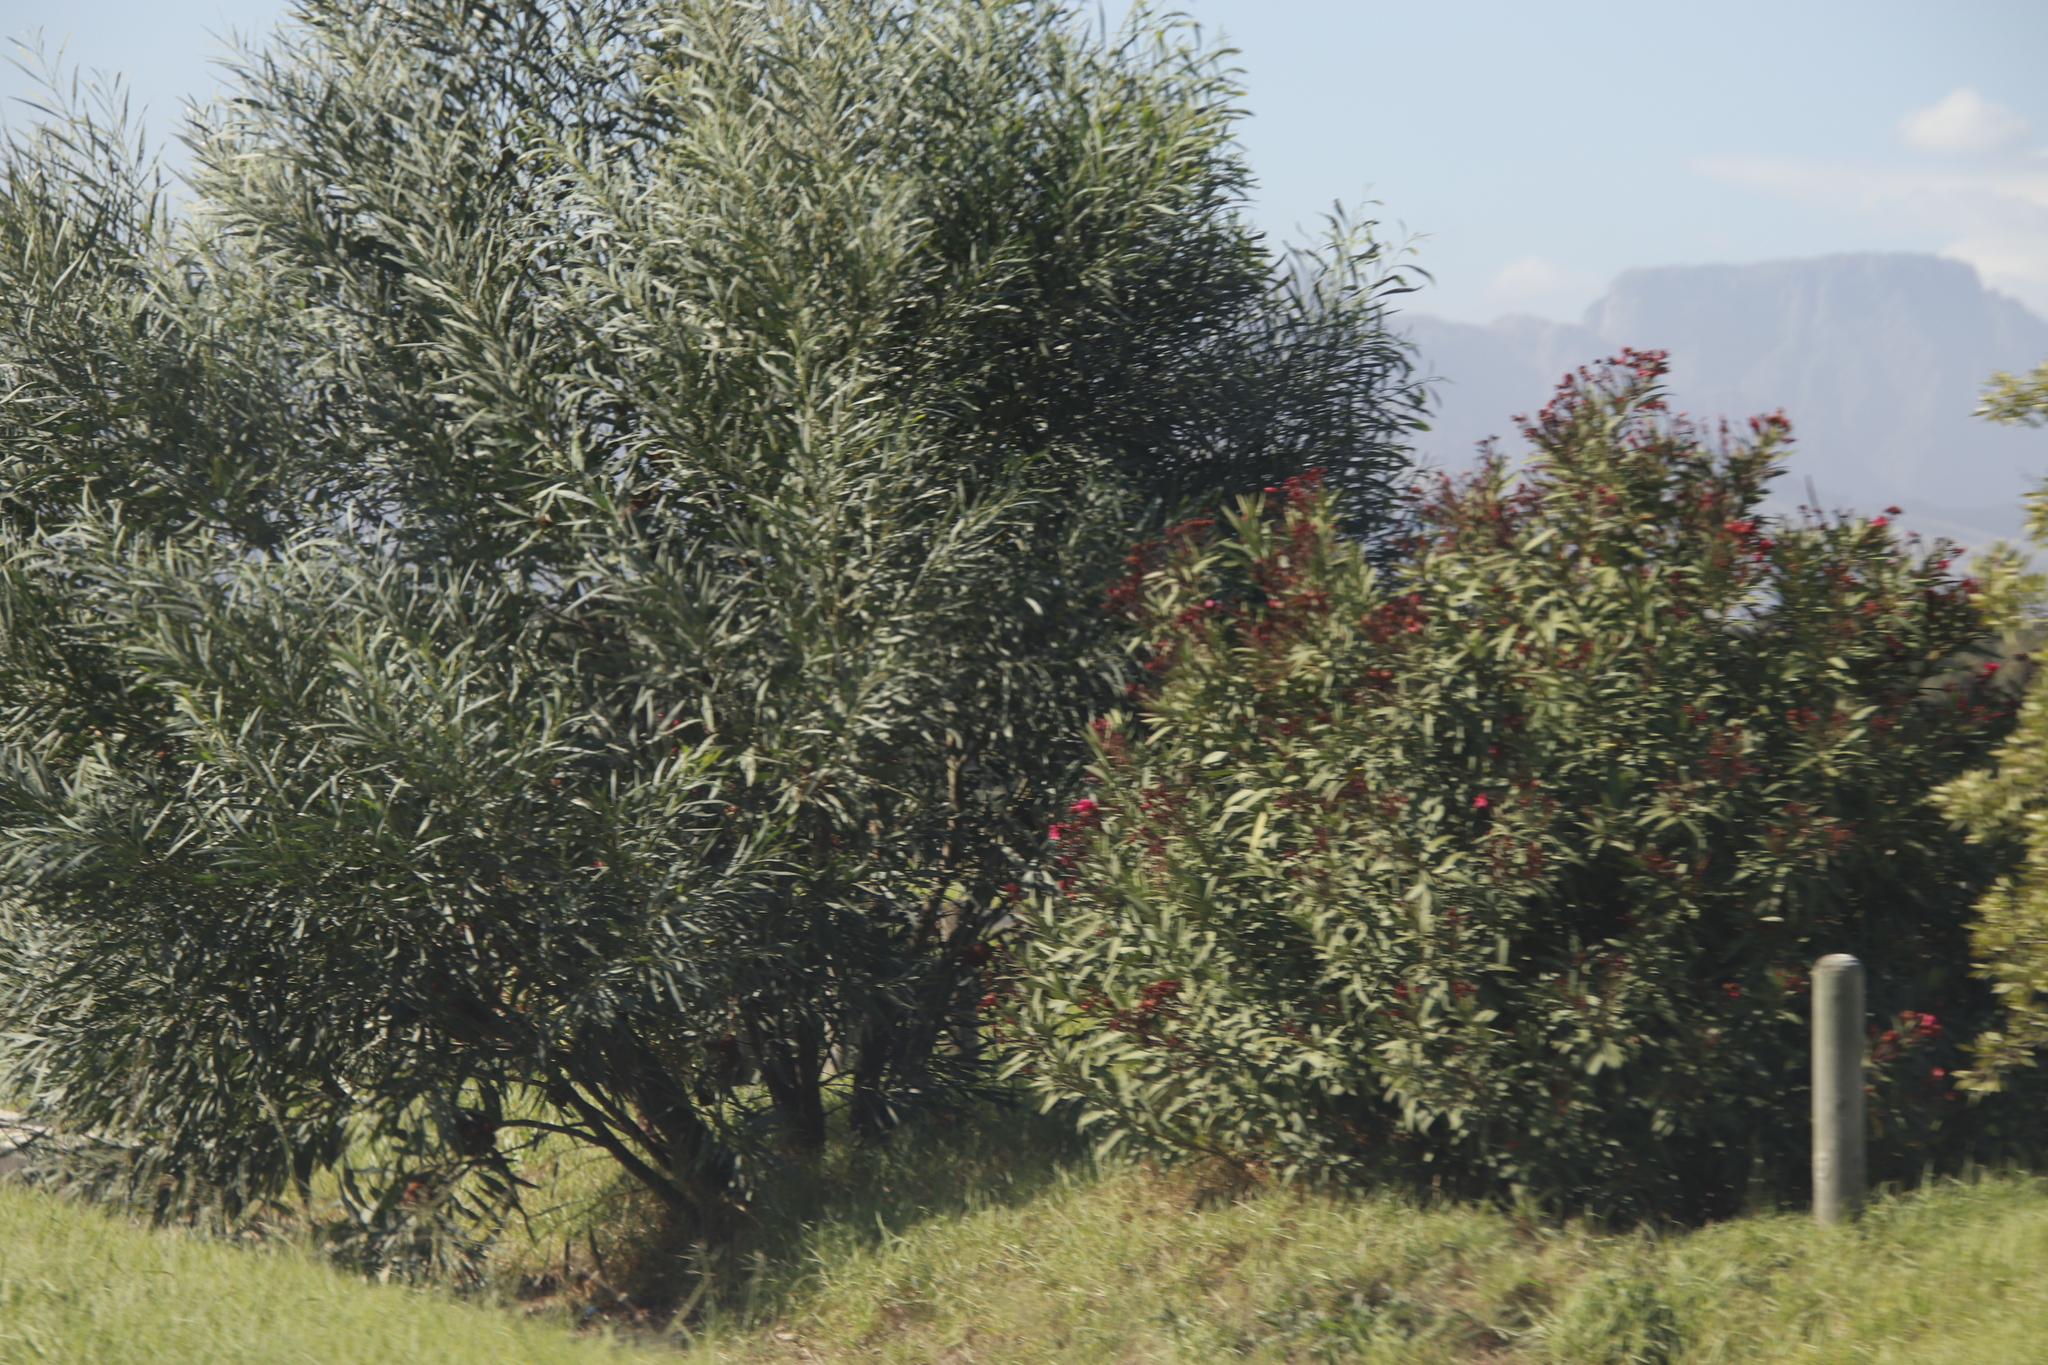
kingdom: Plantae
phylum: Tracheophyta
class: Magnoliopsida
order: Gentianales
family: Apocynaceae
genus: Nerium
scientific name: Nerium oleander
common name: Oleander
